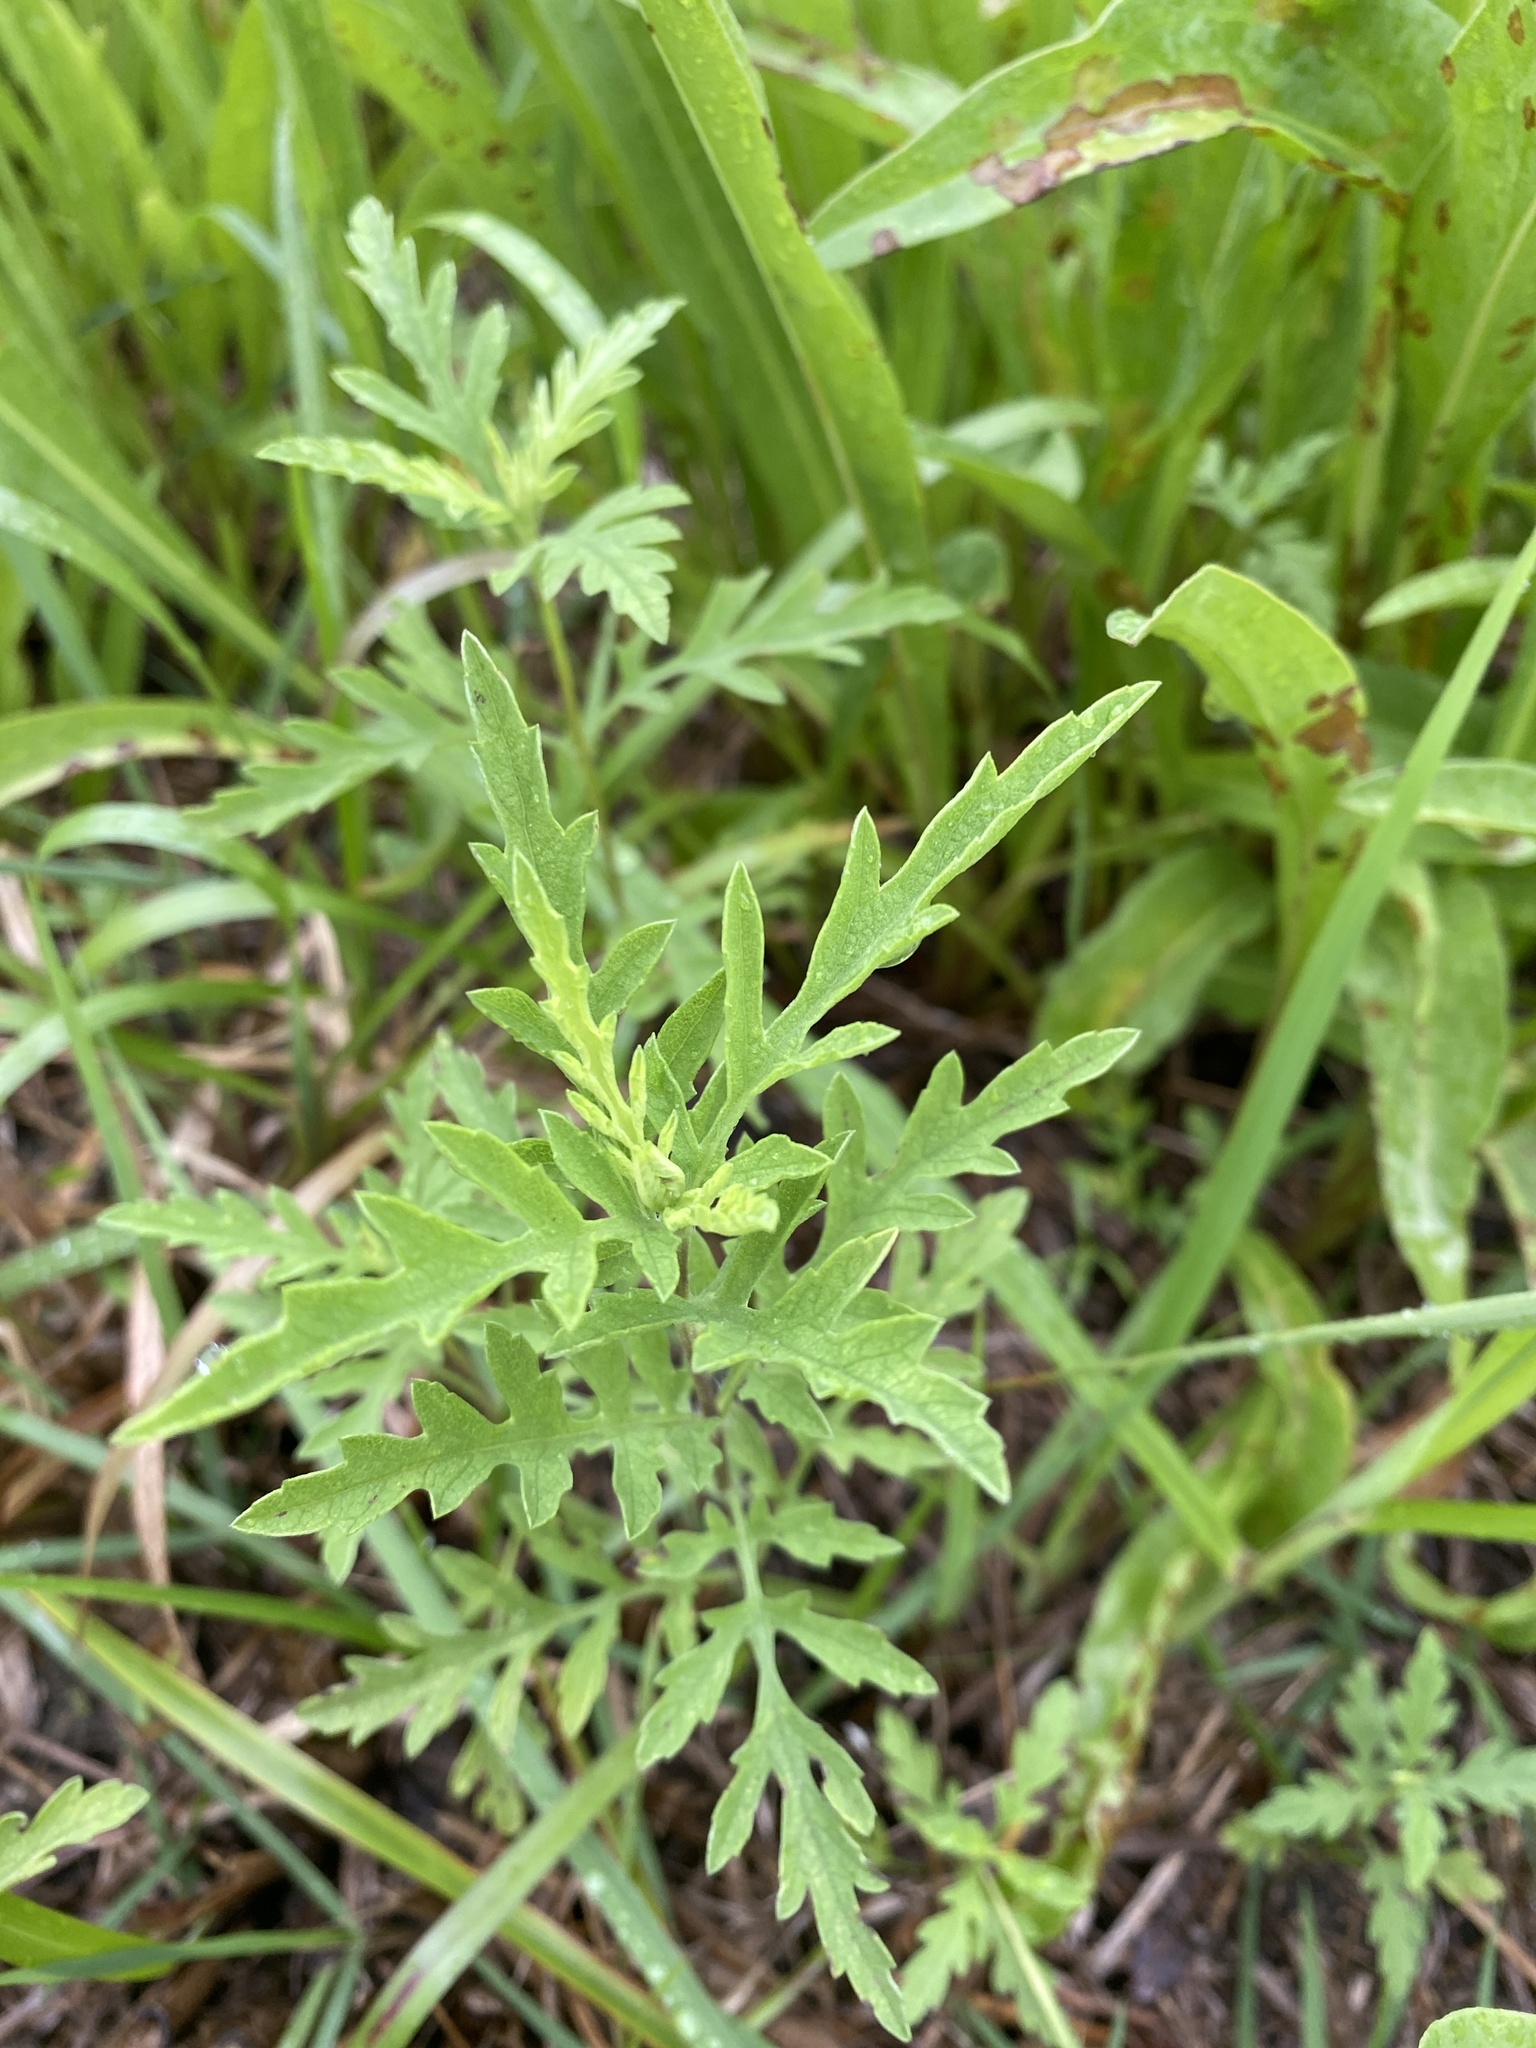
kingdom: Plantae
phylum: Tracheophyta
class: Magnoliopsida
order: Asterales
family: Asteraceae
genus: Ambrosia
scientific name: Ambrosia psilostachya
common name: Perennial ragweed
